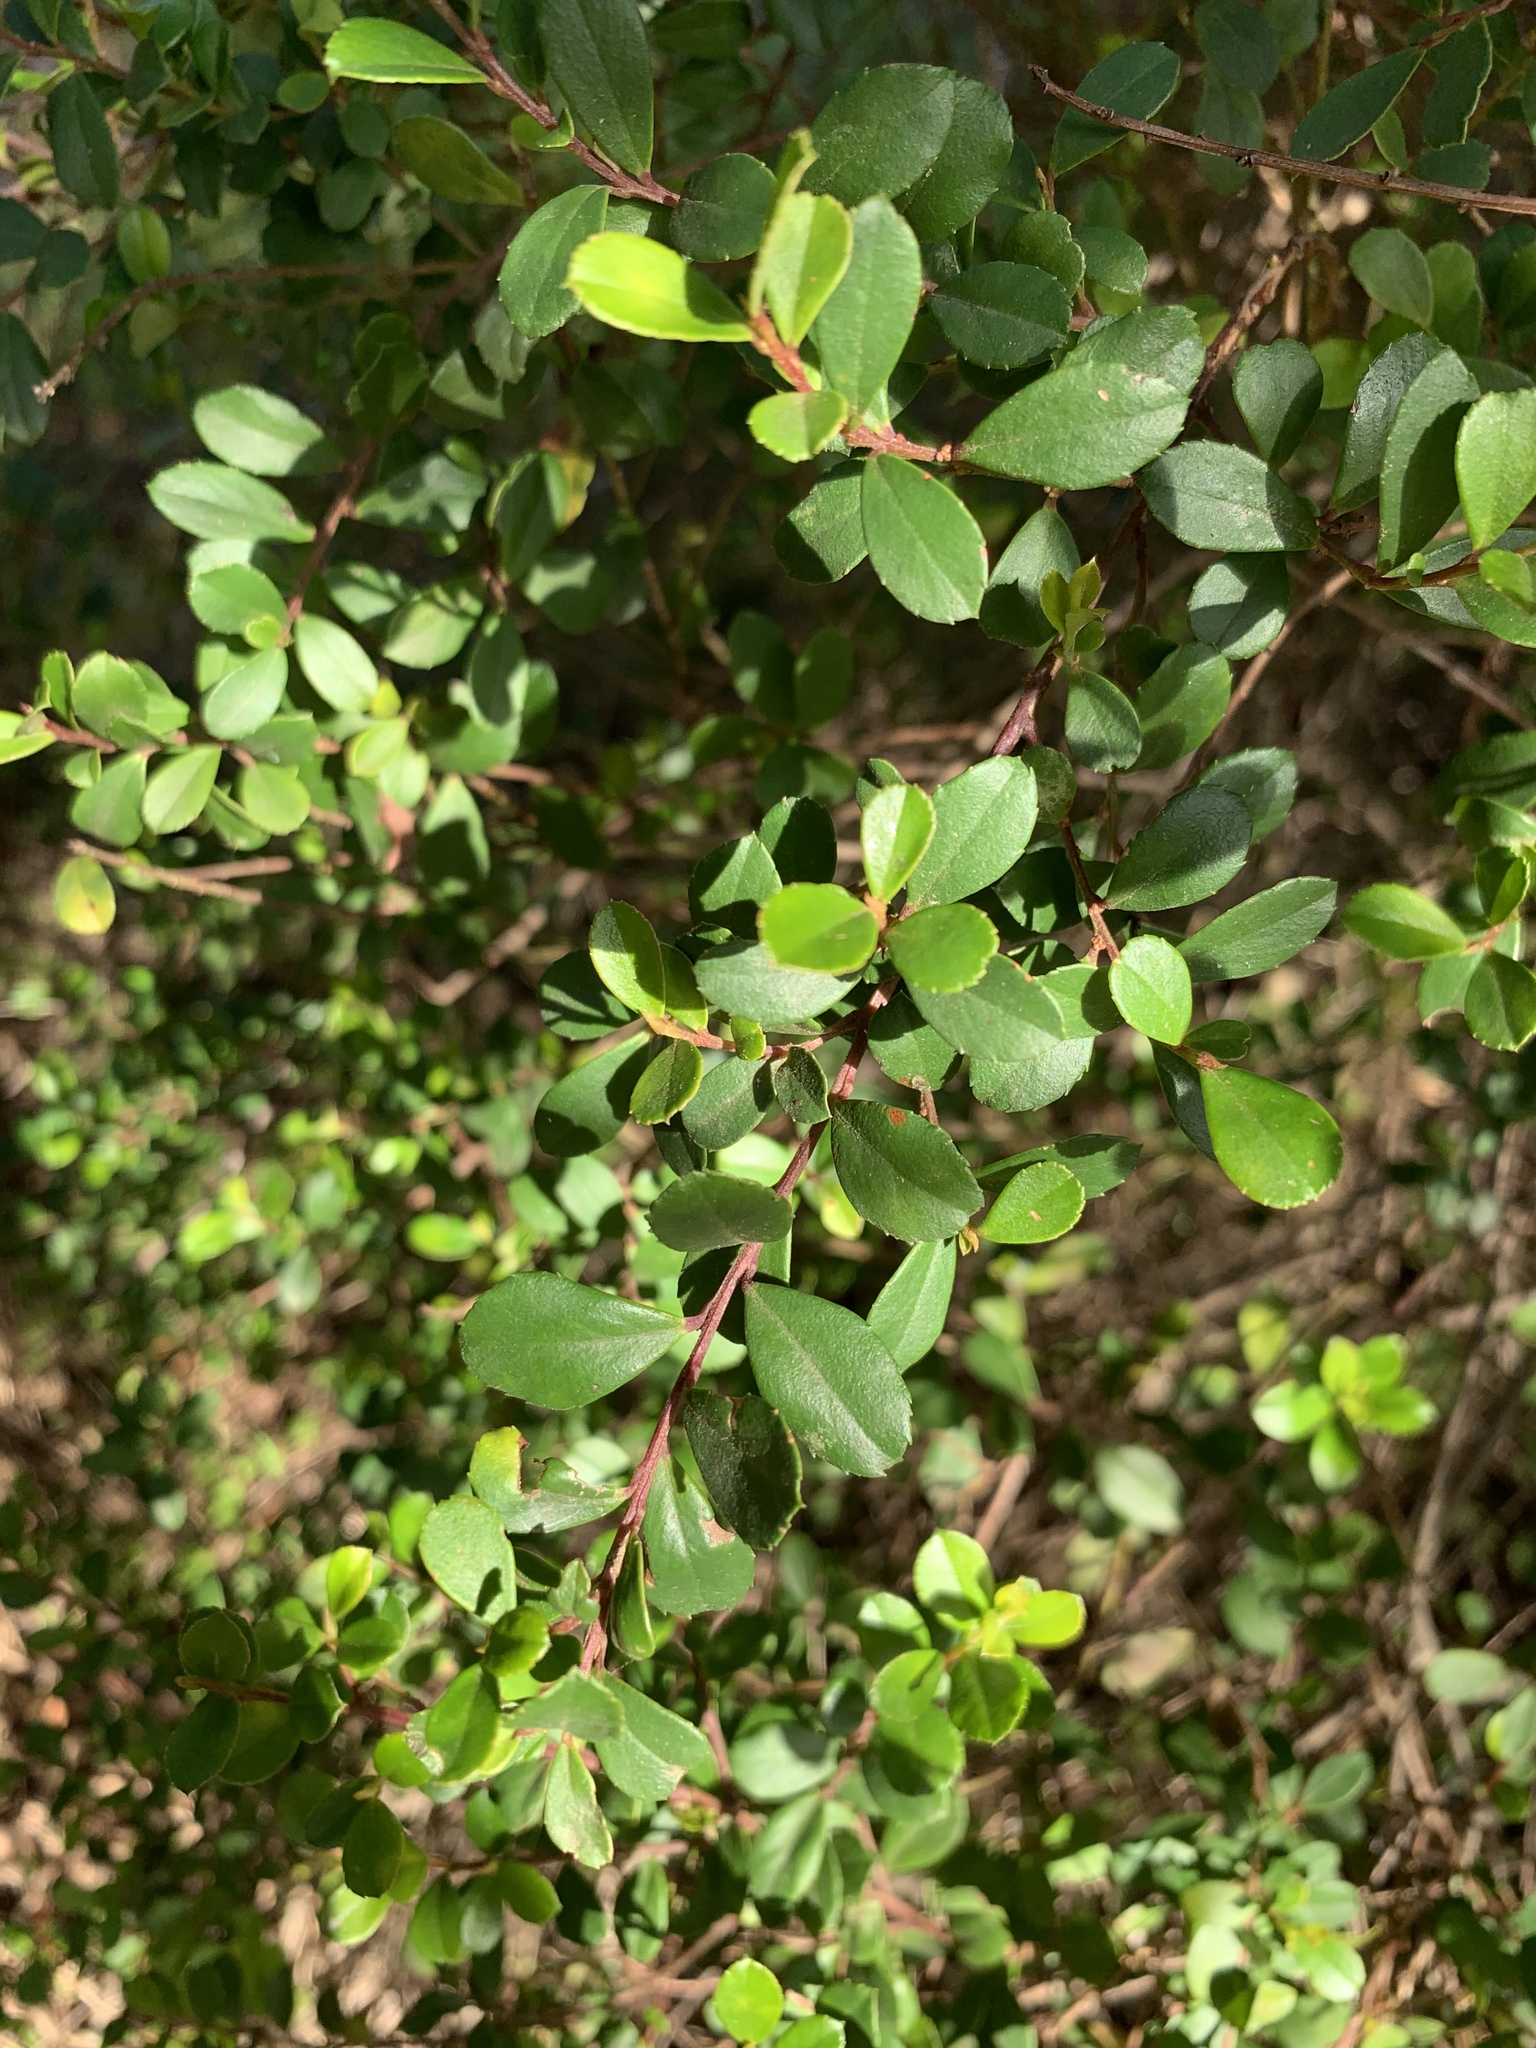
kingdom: Plantae
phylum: Tracheophyta
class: Magnoliopsida
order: Ericales
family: Primulaceae
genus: Myrsine
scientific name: Myrsine africana
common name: African-boxwood
